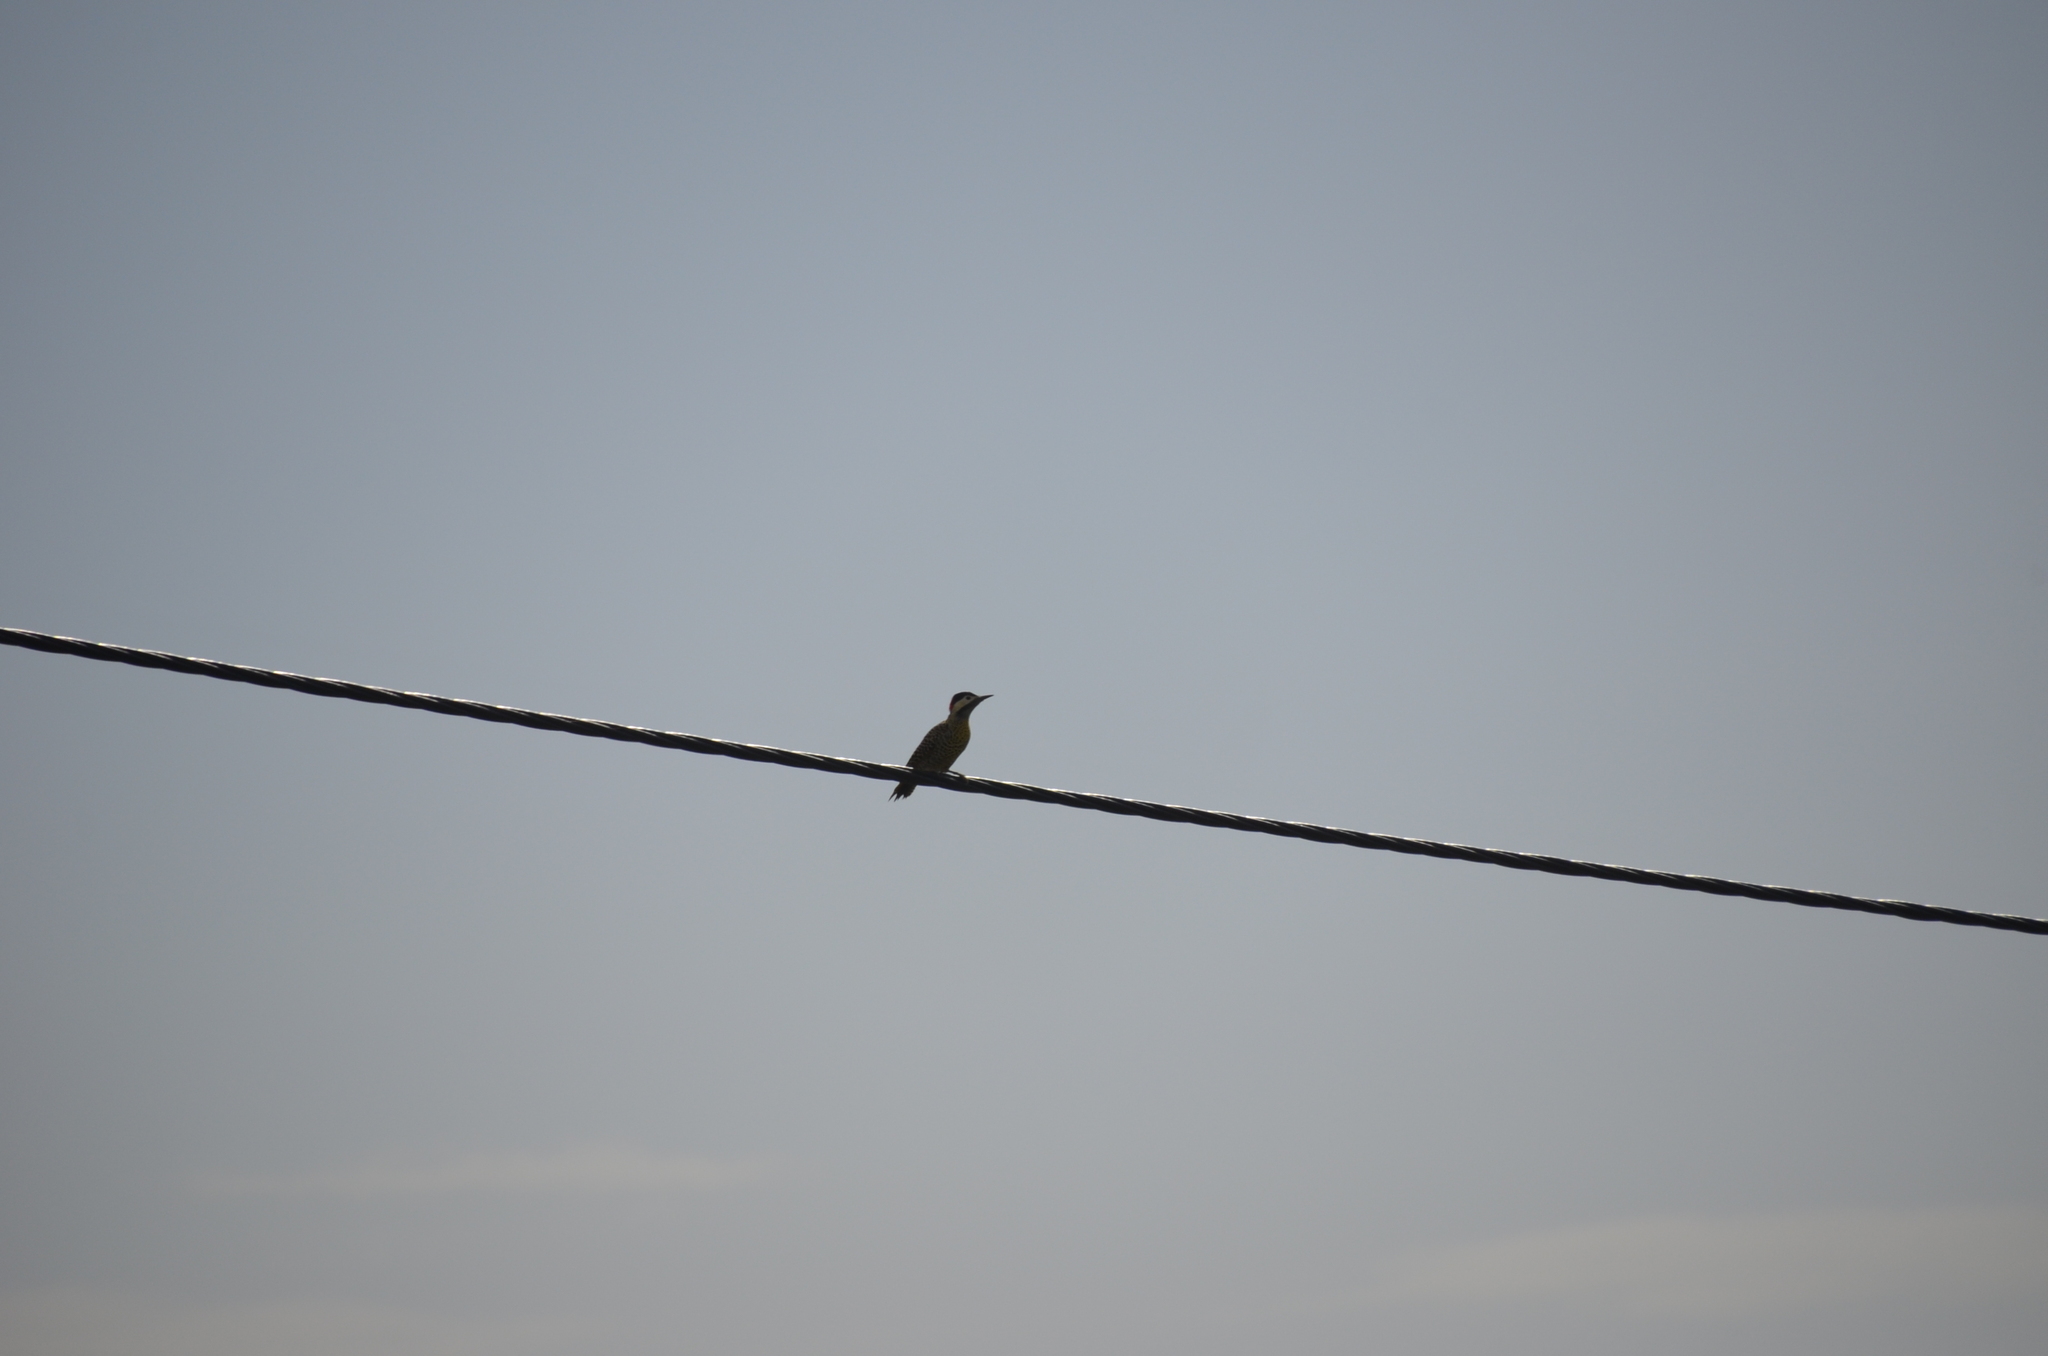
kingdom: Animalia
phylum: Chordata
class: Aves
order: Piciformes
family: Picidae
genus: Colaptes
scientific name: Colaptes melanochloros
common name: Green-barred woodpecker
